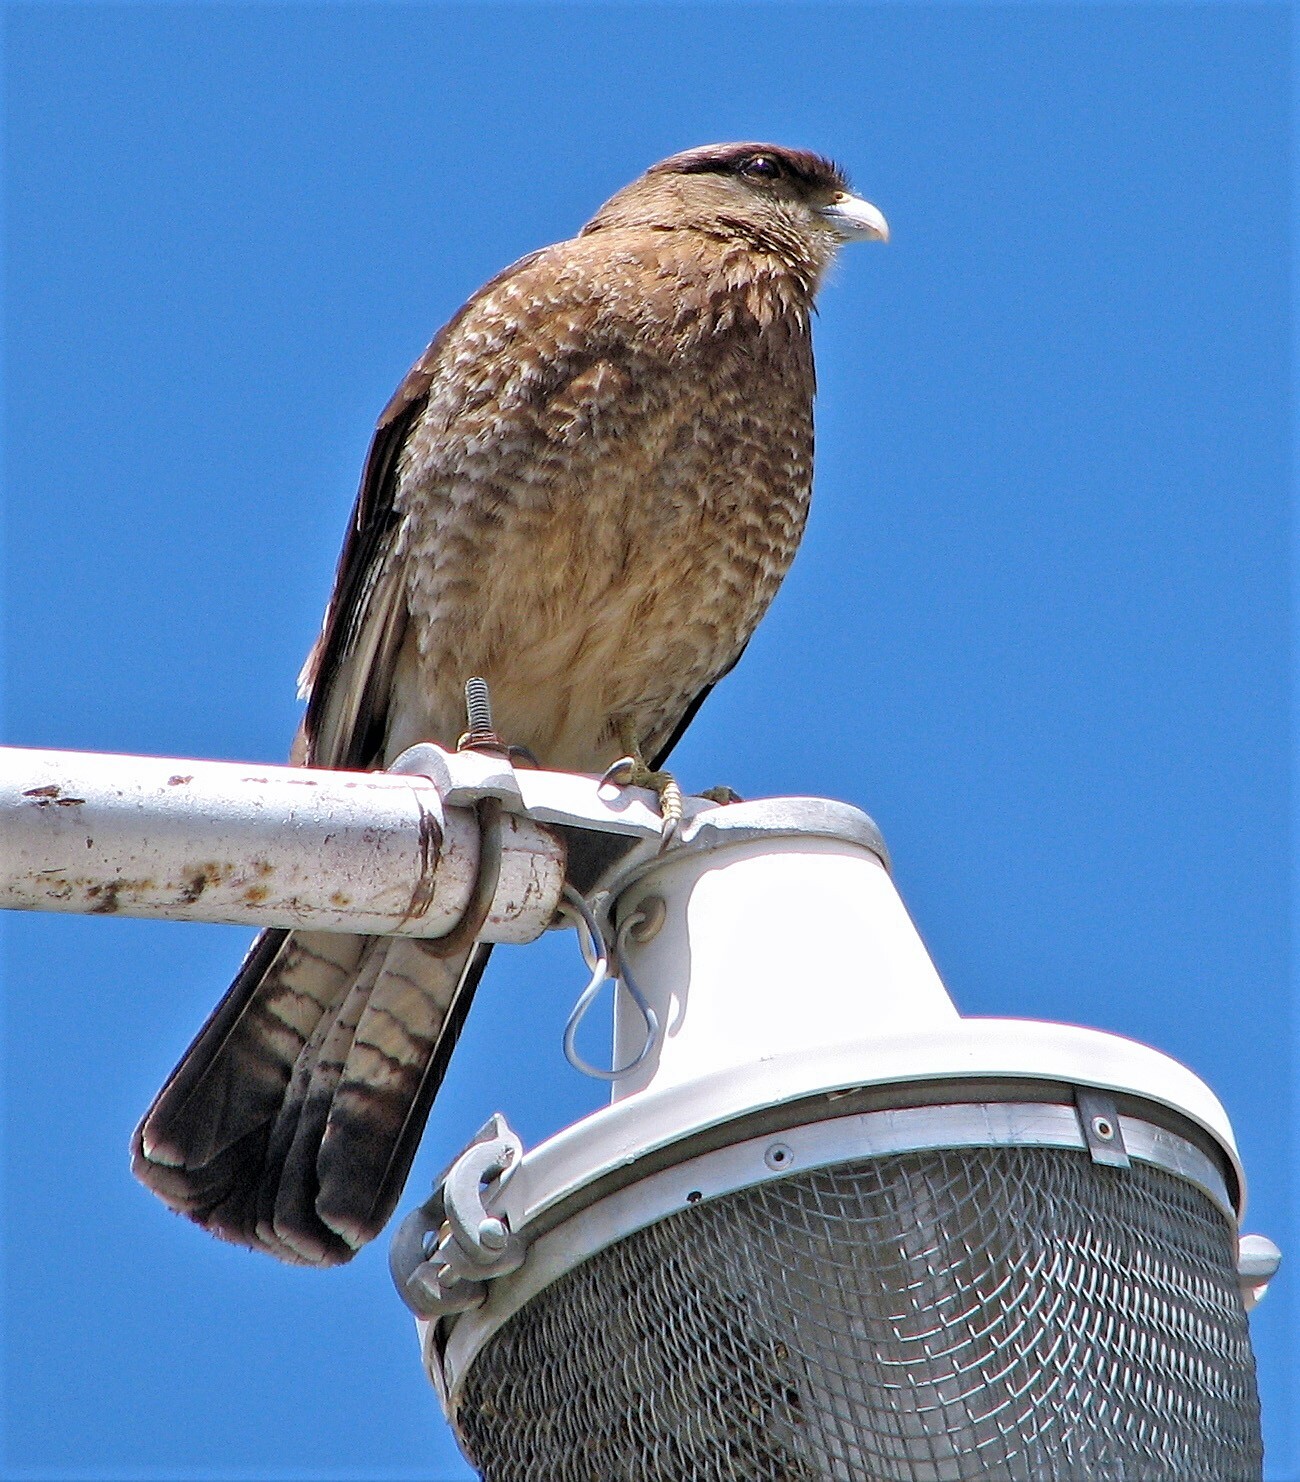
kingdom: Animalia
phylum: Chordata
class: Aves
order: Falconiformes
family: Falconidae
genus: Daptrius
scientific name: Daptrius
